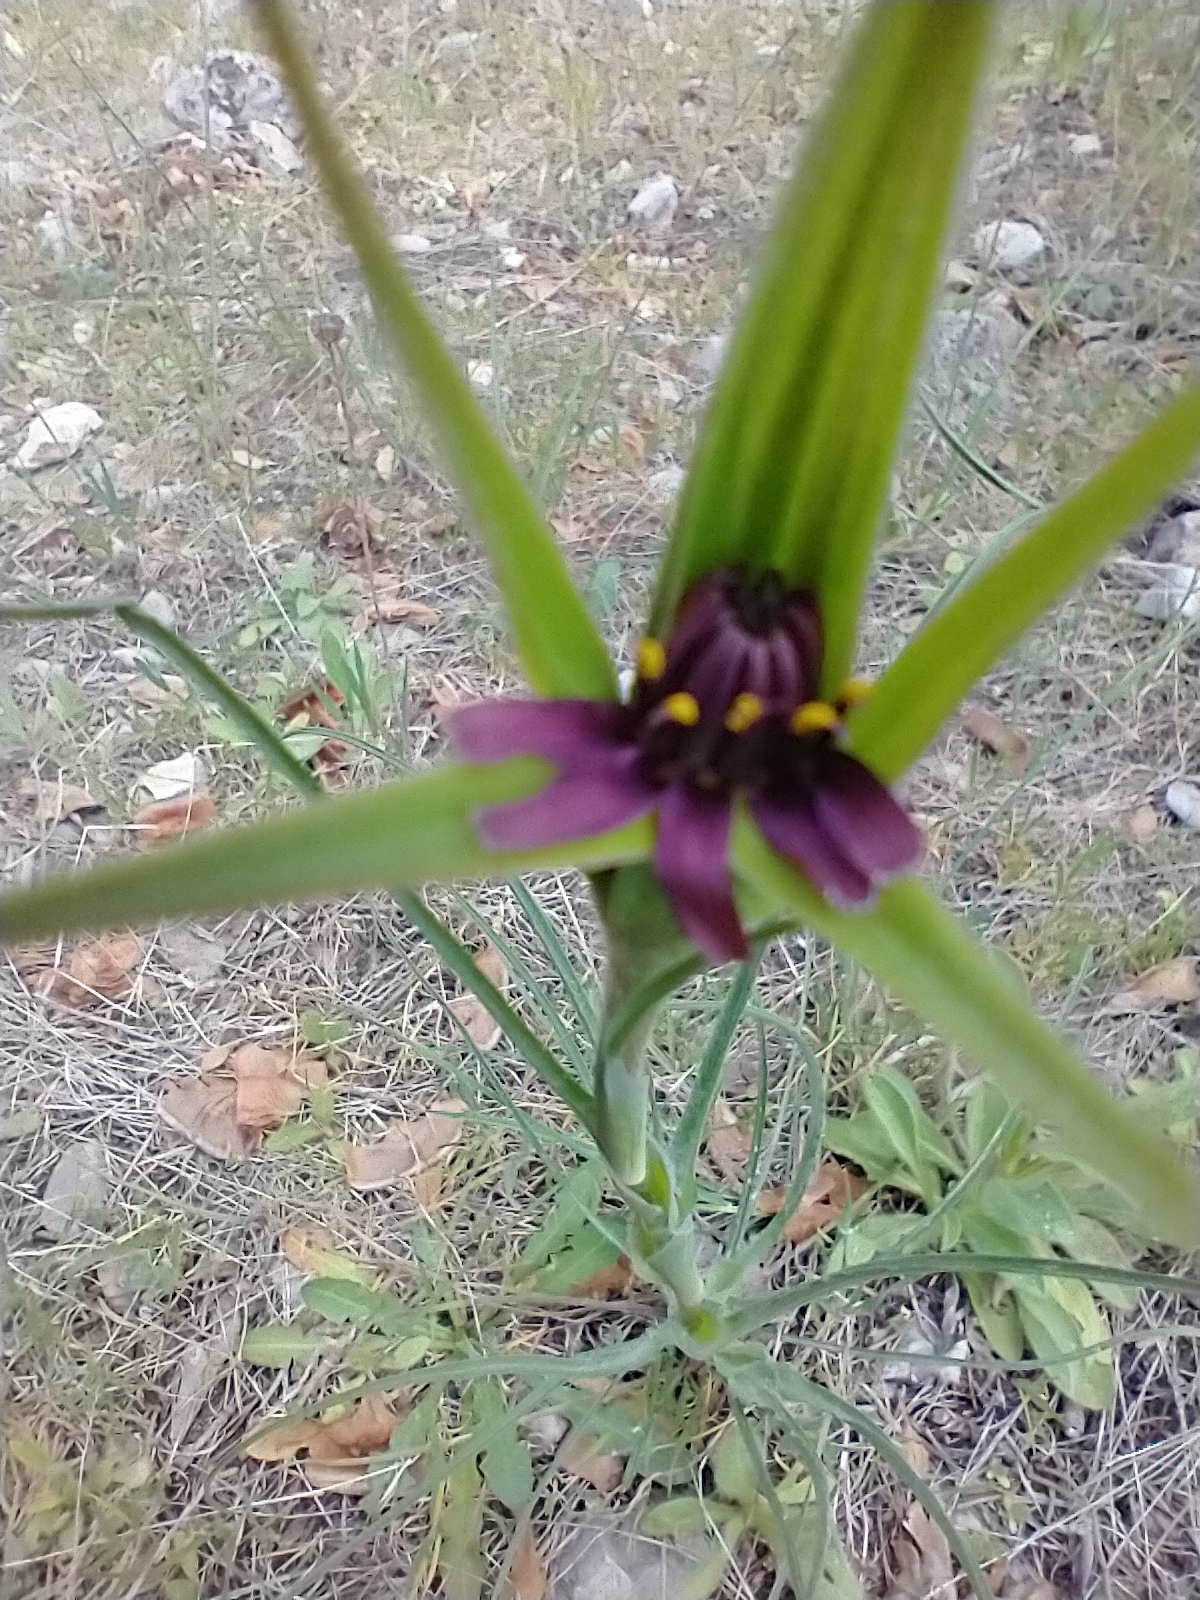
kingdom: Plantae
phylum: Tracheophyta
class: Magnoliopsida
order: Asterales
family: Asteraceae
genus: Tragopogon
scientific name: Tragopogon porrifolius
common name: Salsify
